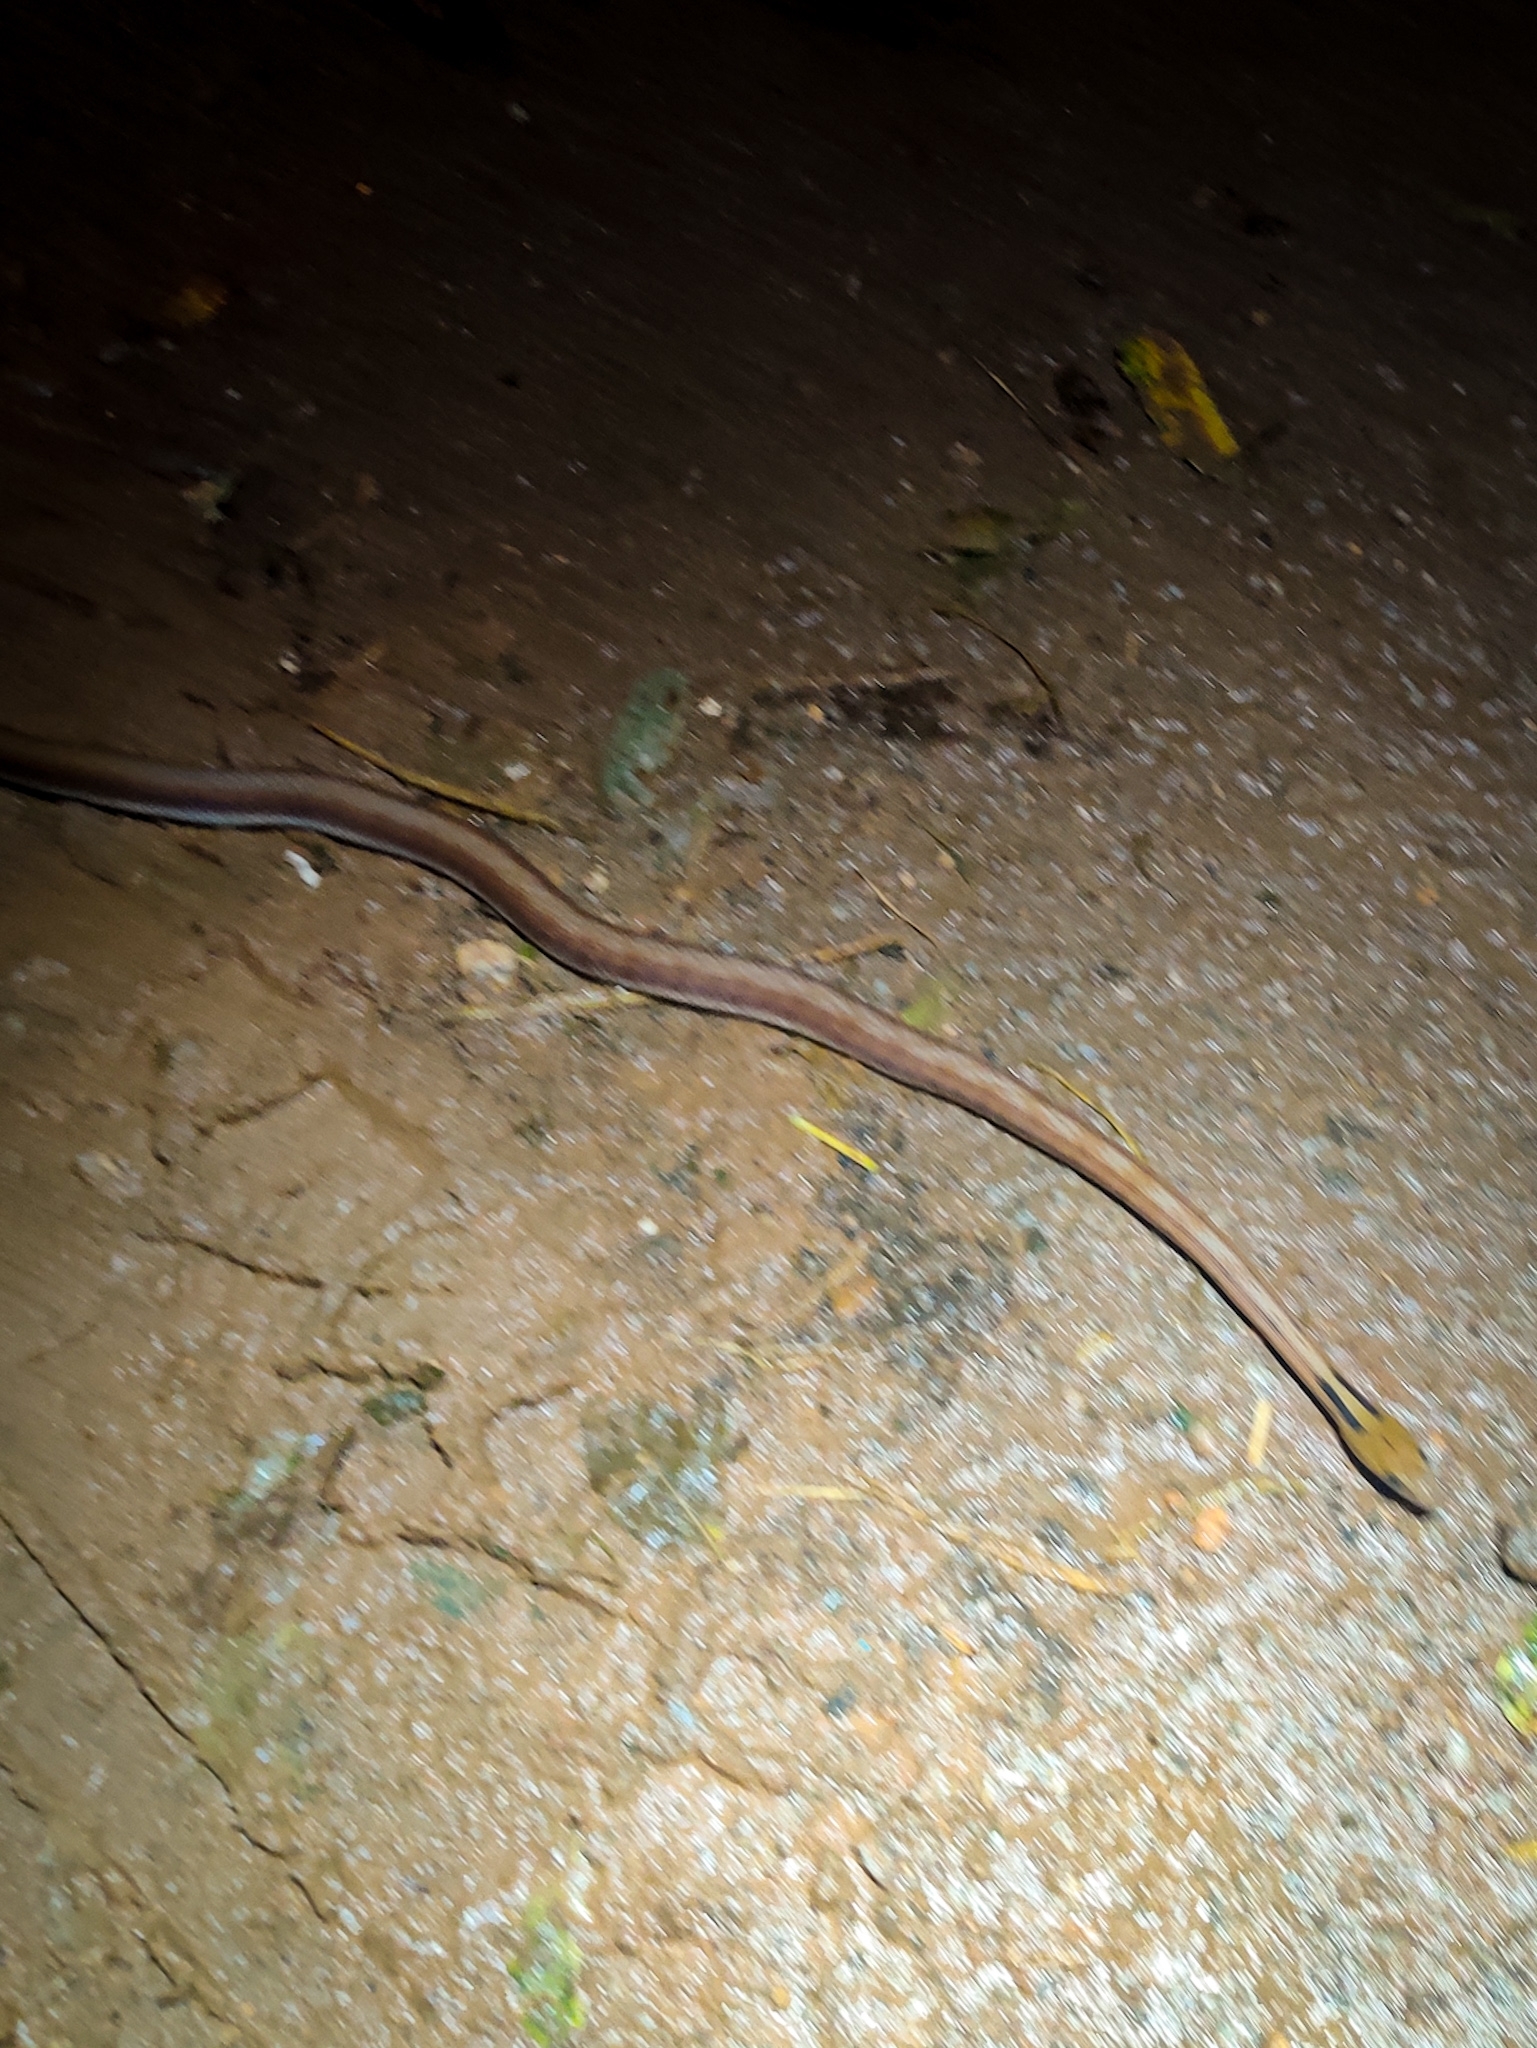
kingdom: Animalia
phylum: Chordata
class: Squamata
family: Colubridae
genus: Coelognathus
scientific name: Coelognathus helena
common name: Trinket snake
